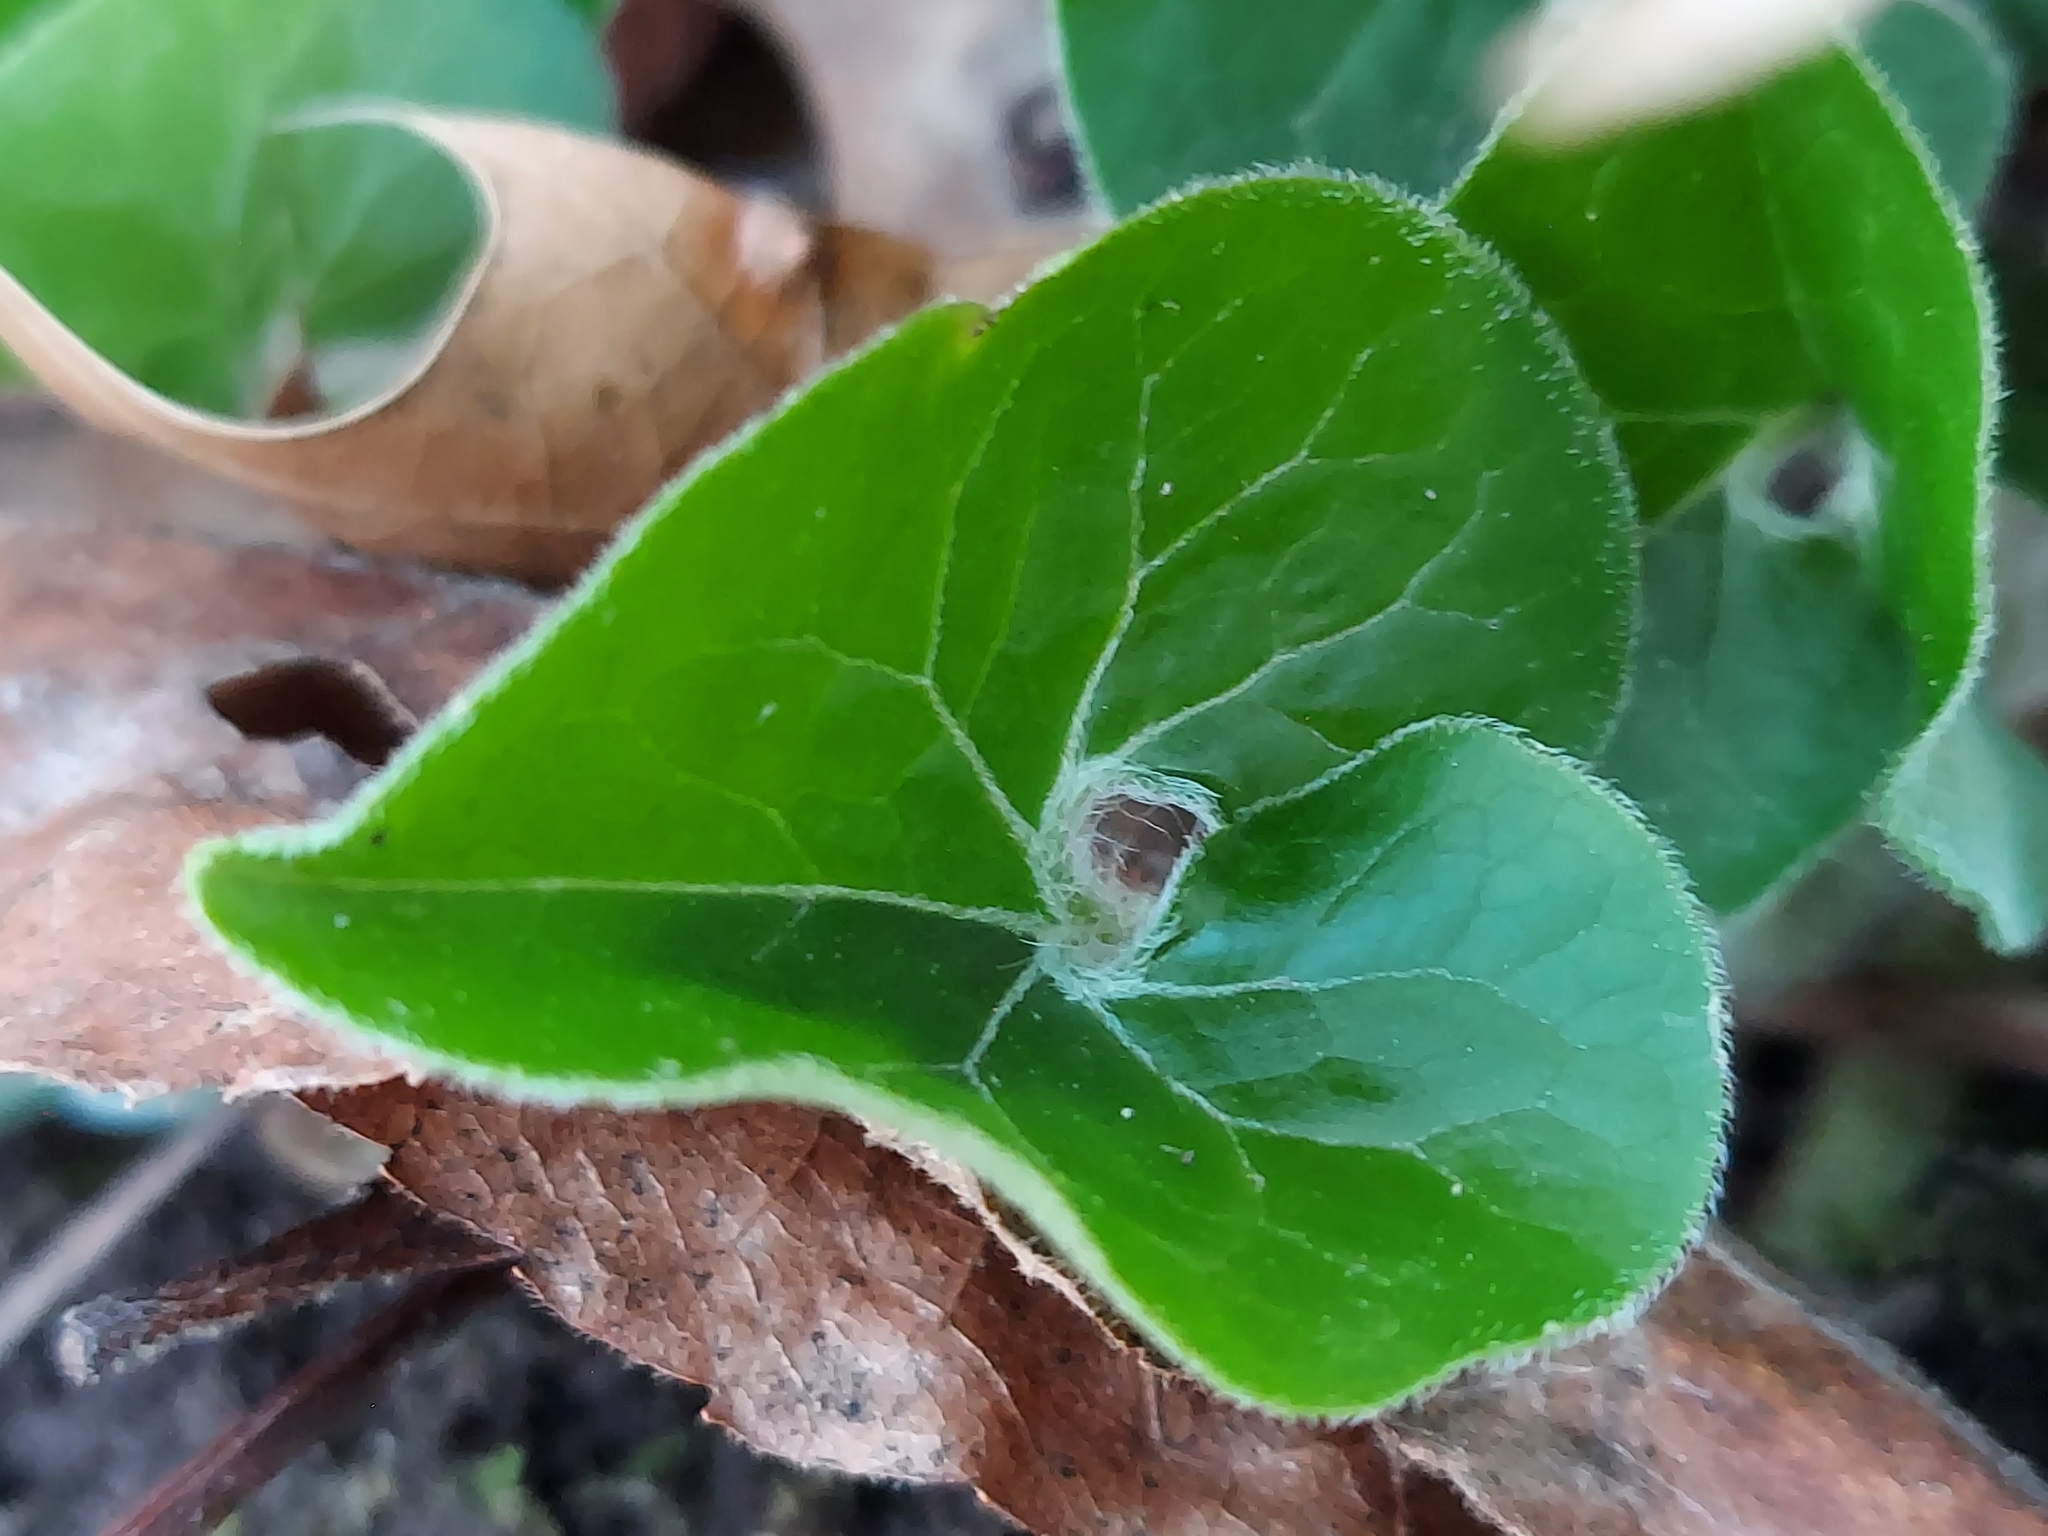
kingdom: Plantae
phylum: Tracheophyta
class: Magnoliopsida
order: Piperales
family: Aristolochiaceae
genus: Asarum
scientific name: Asarum canadense
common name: Wild ginger
